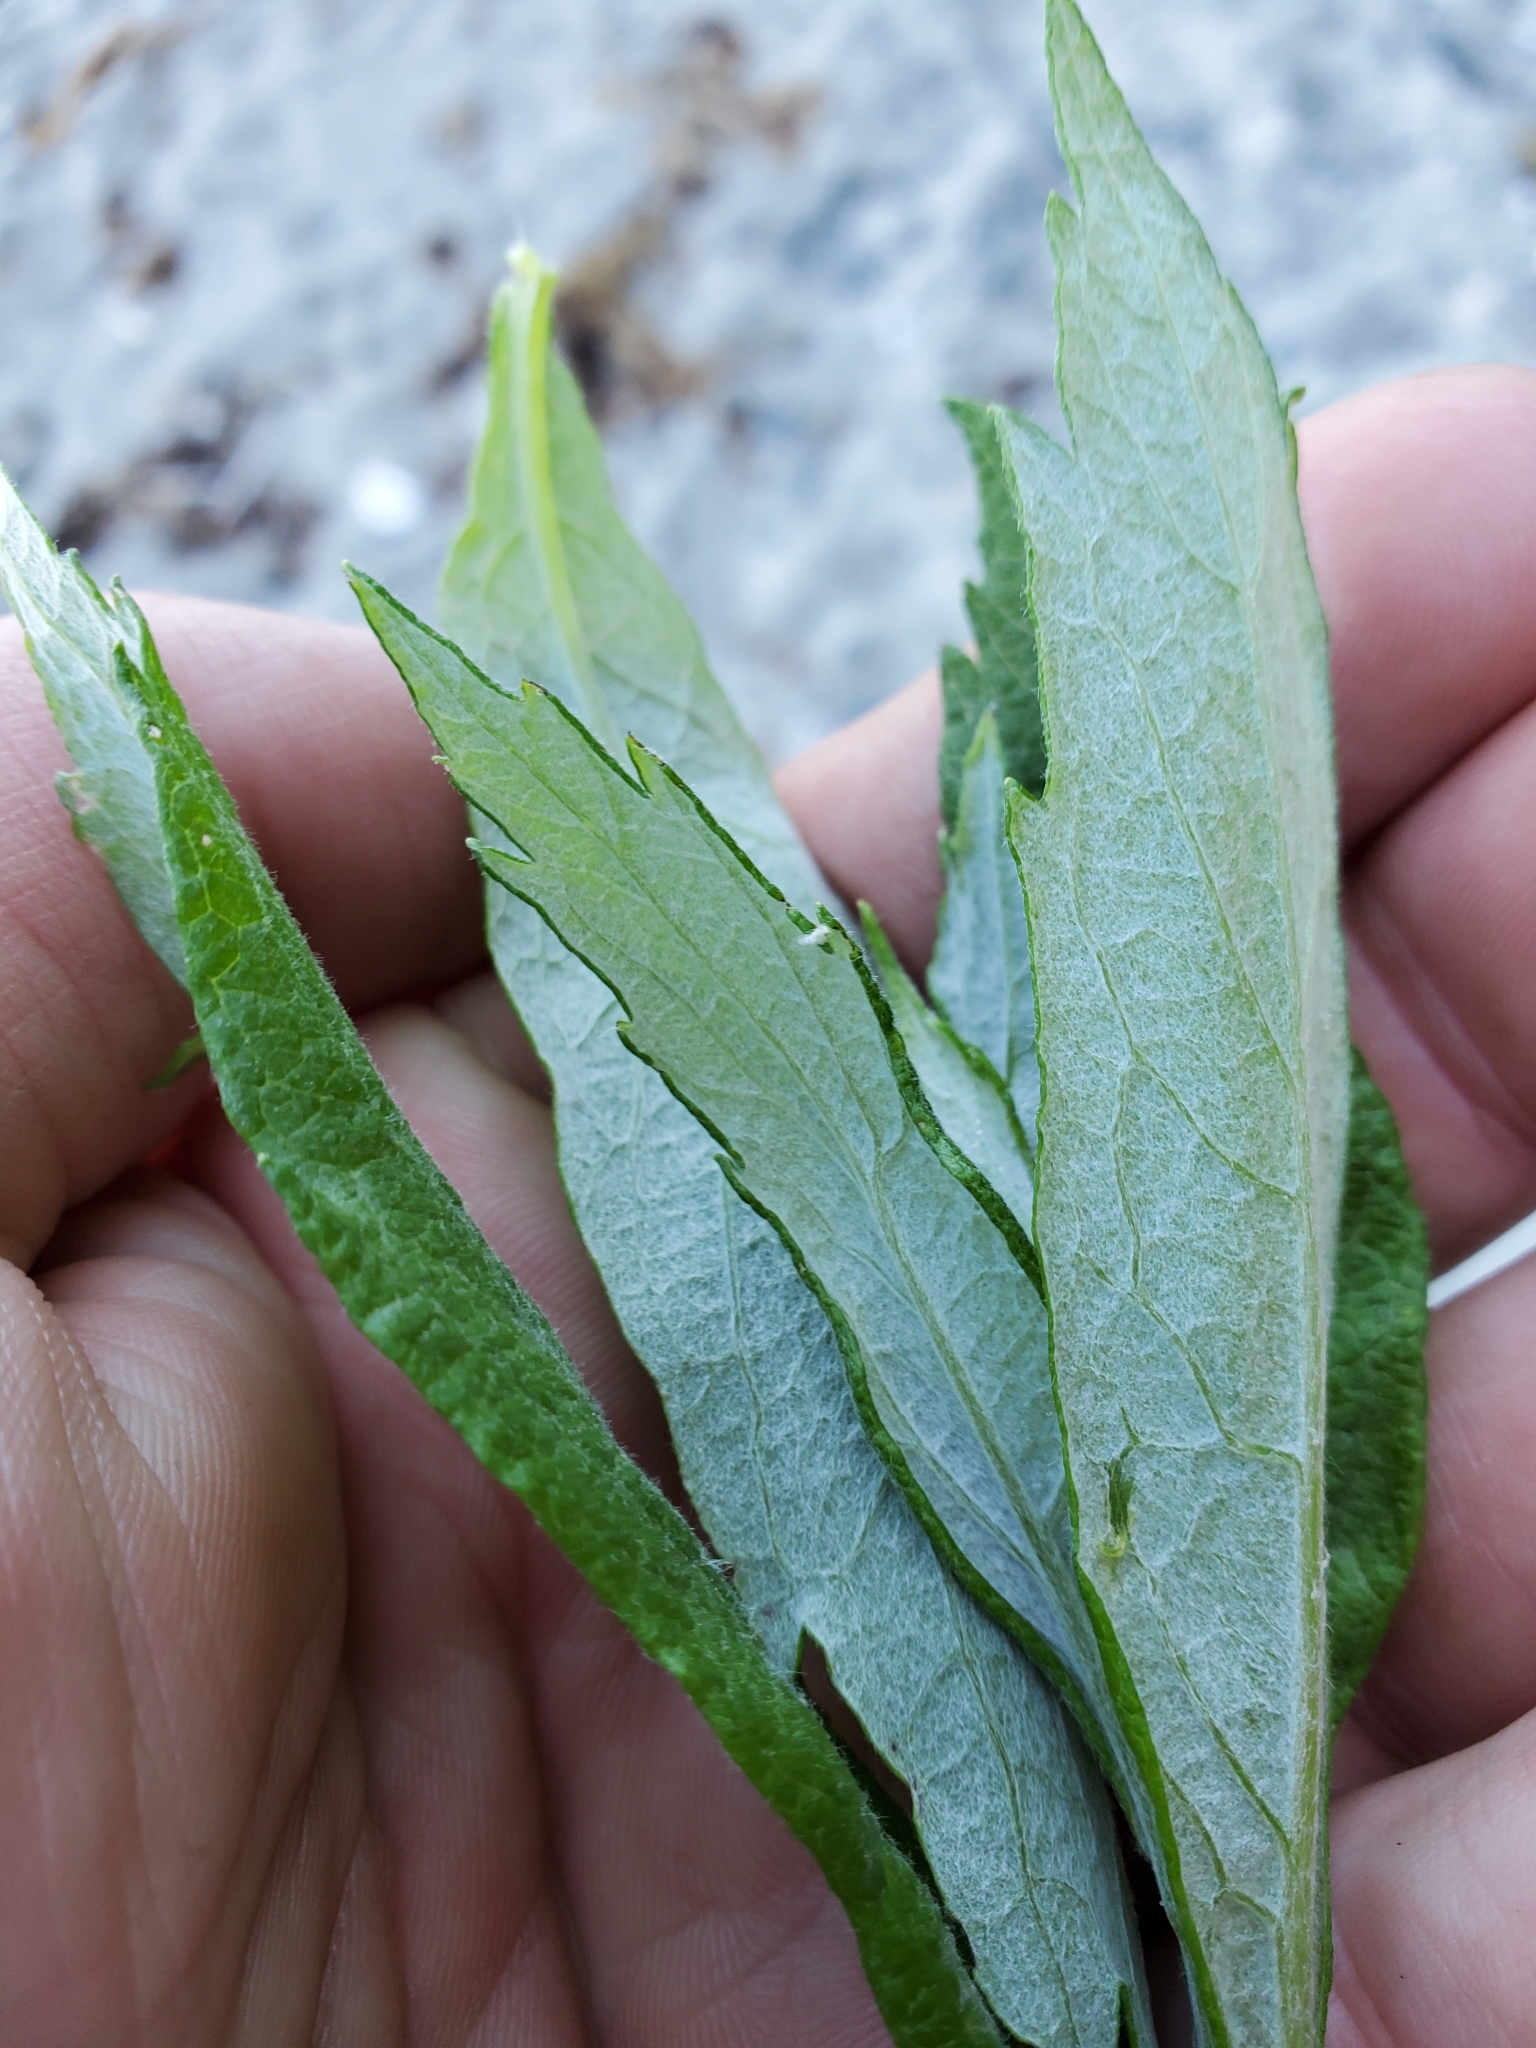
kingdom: Plantae
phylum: Tracheophyta
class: Magnoliopsida
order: Asterales
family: Asteraceae
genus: Artemisia
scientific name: Artemisia suksdorfii
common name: Suksdorf sagewort
